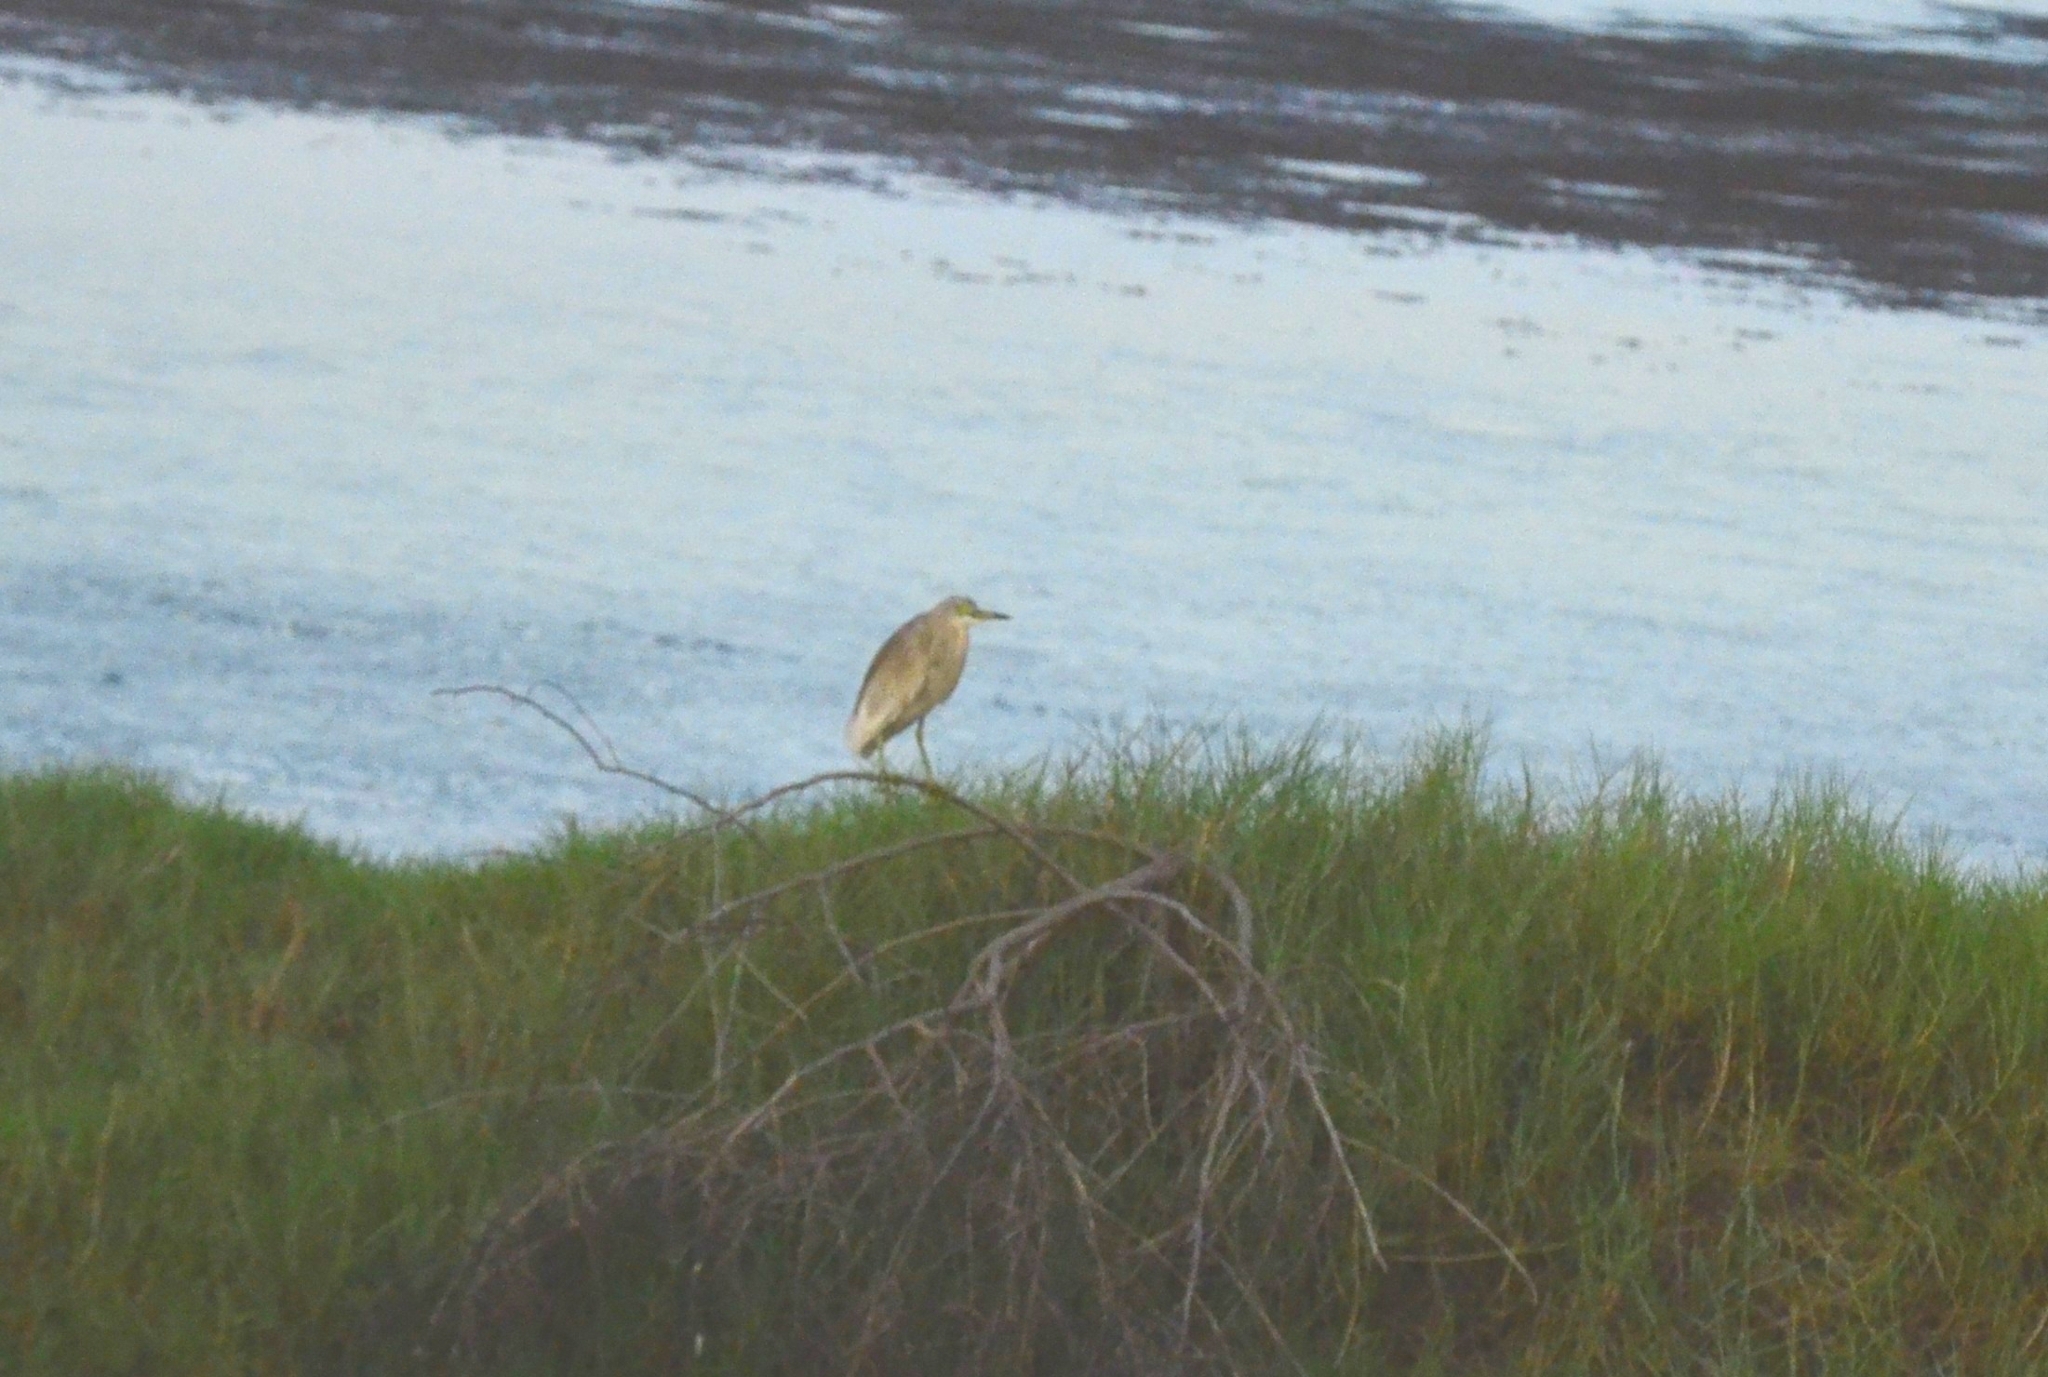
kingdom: Animalia
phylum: Chordata
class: Aves
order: Pelecaniformes
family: Ardeidae
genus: Ardeola
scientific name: Ardeola grayii
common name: Indian pond heron
